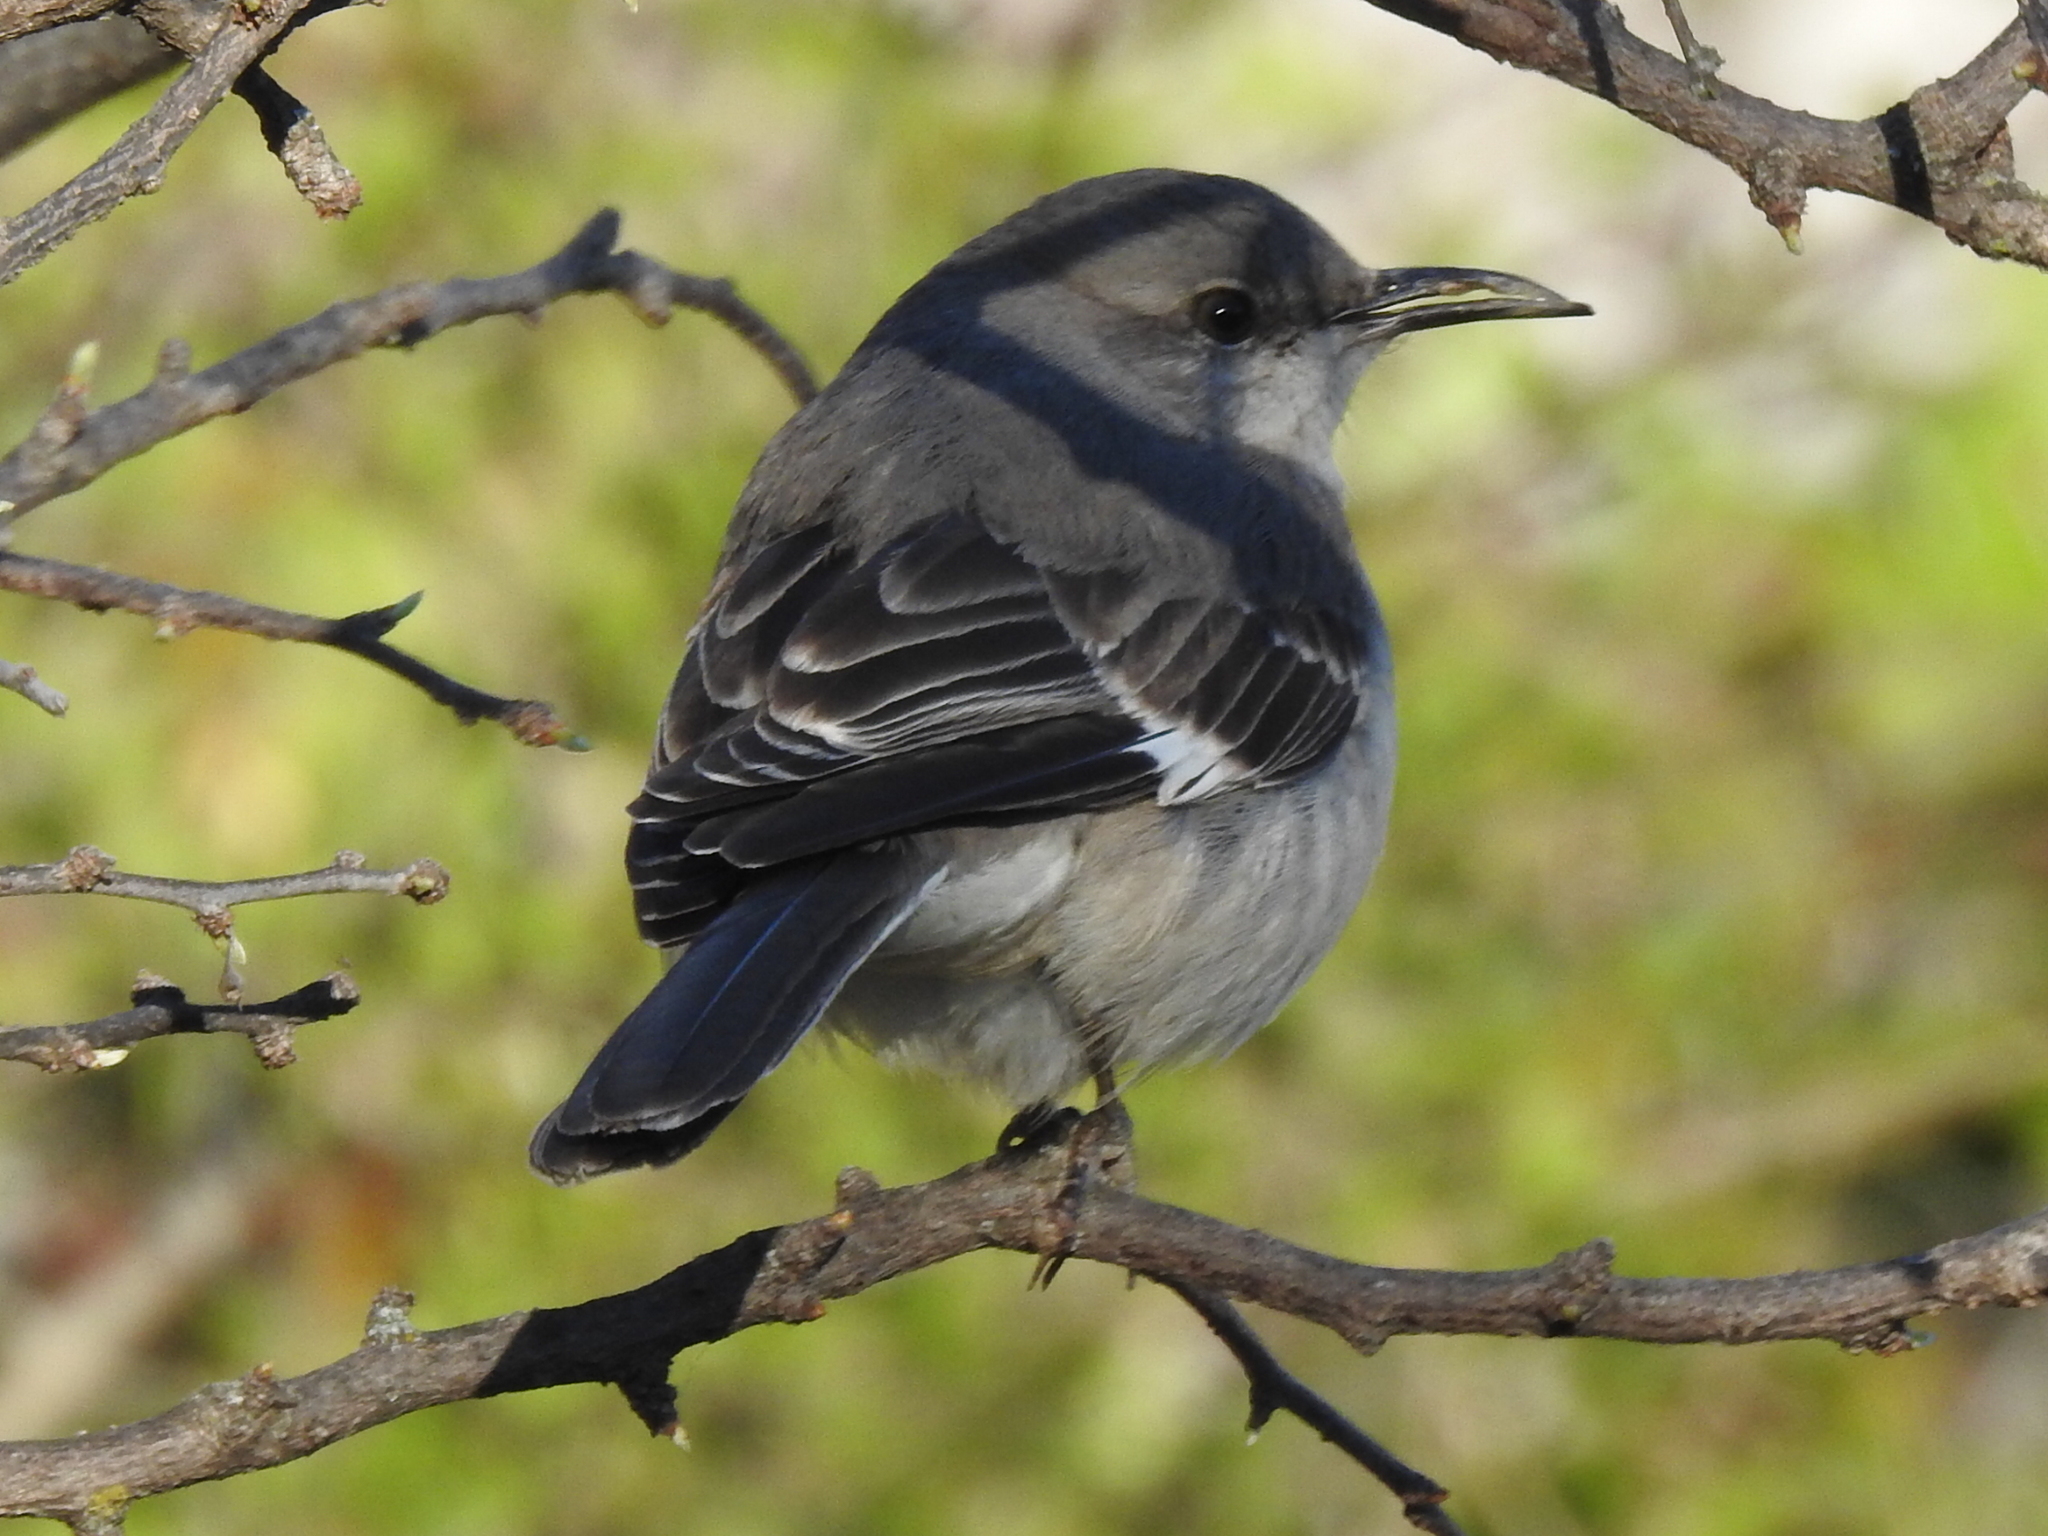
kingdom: Animalia
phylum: Chordata
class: Aves
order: Passeriformes
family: Mimidae
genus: Mimus
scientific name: Mimus polyglottos
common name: Northern mockingbird
